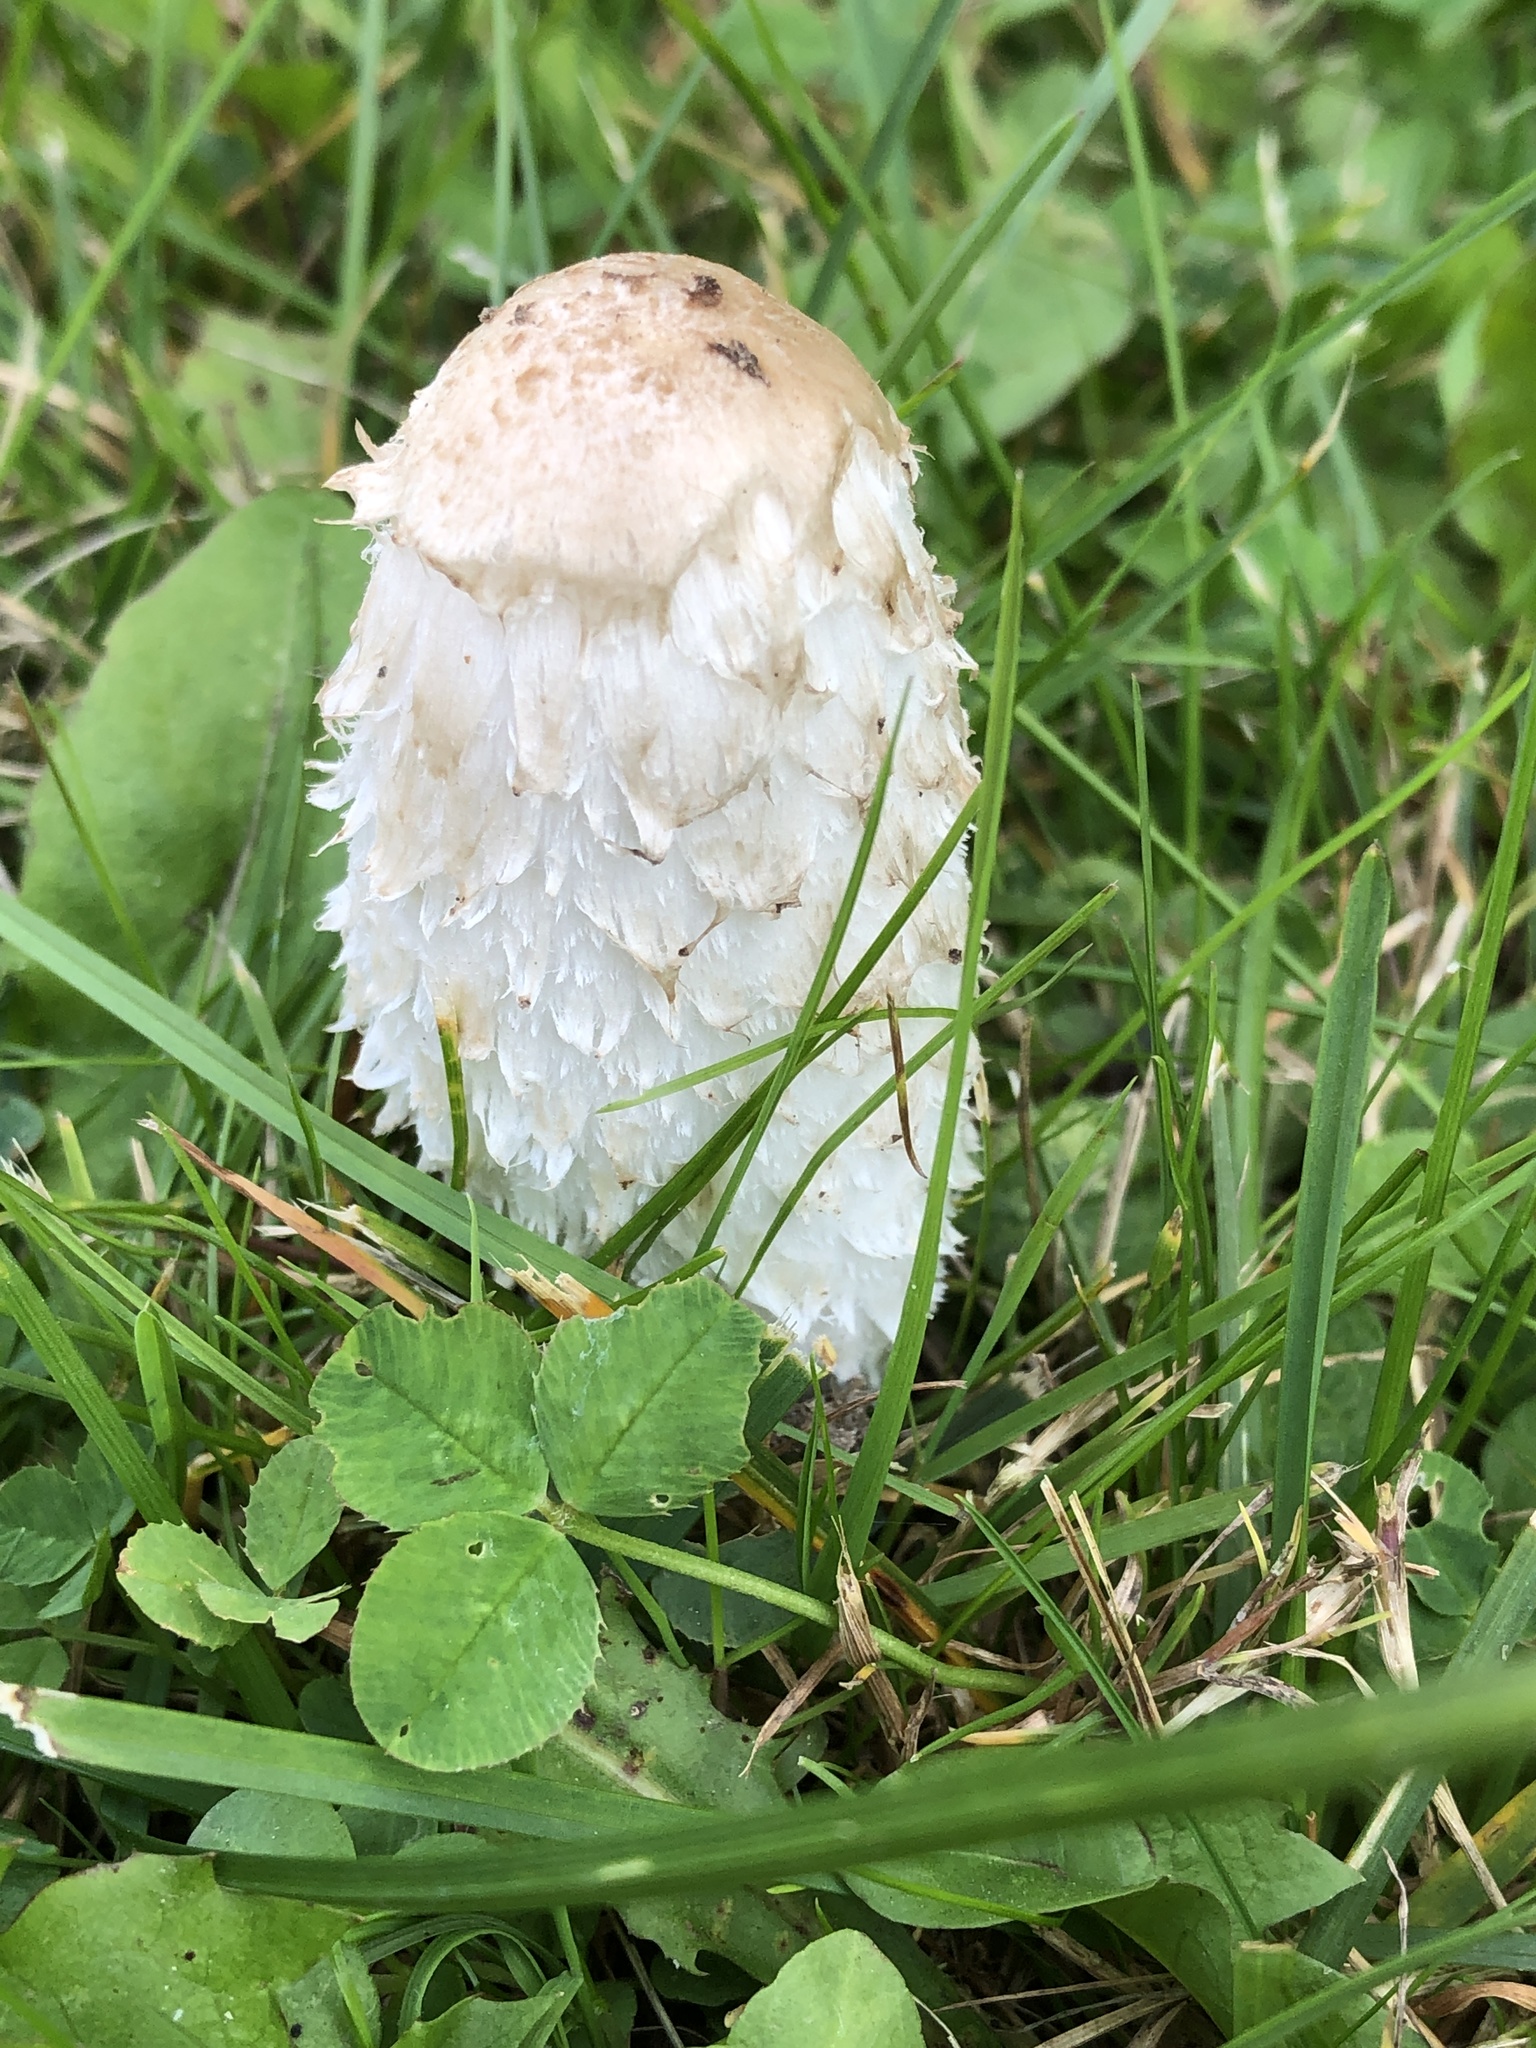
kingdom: Fungi
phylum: Basidiomycota
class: Agaricomycetes
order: Agaricales
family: Agaricaceae
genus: Coprinus
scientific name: Coprinus comatus
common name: Lawyer's wig
